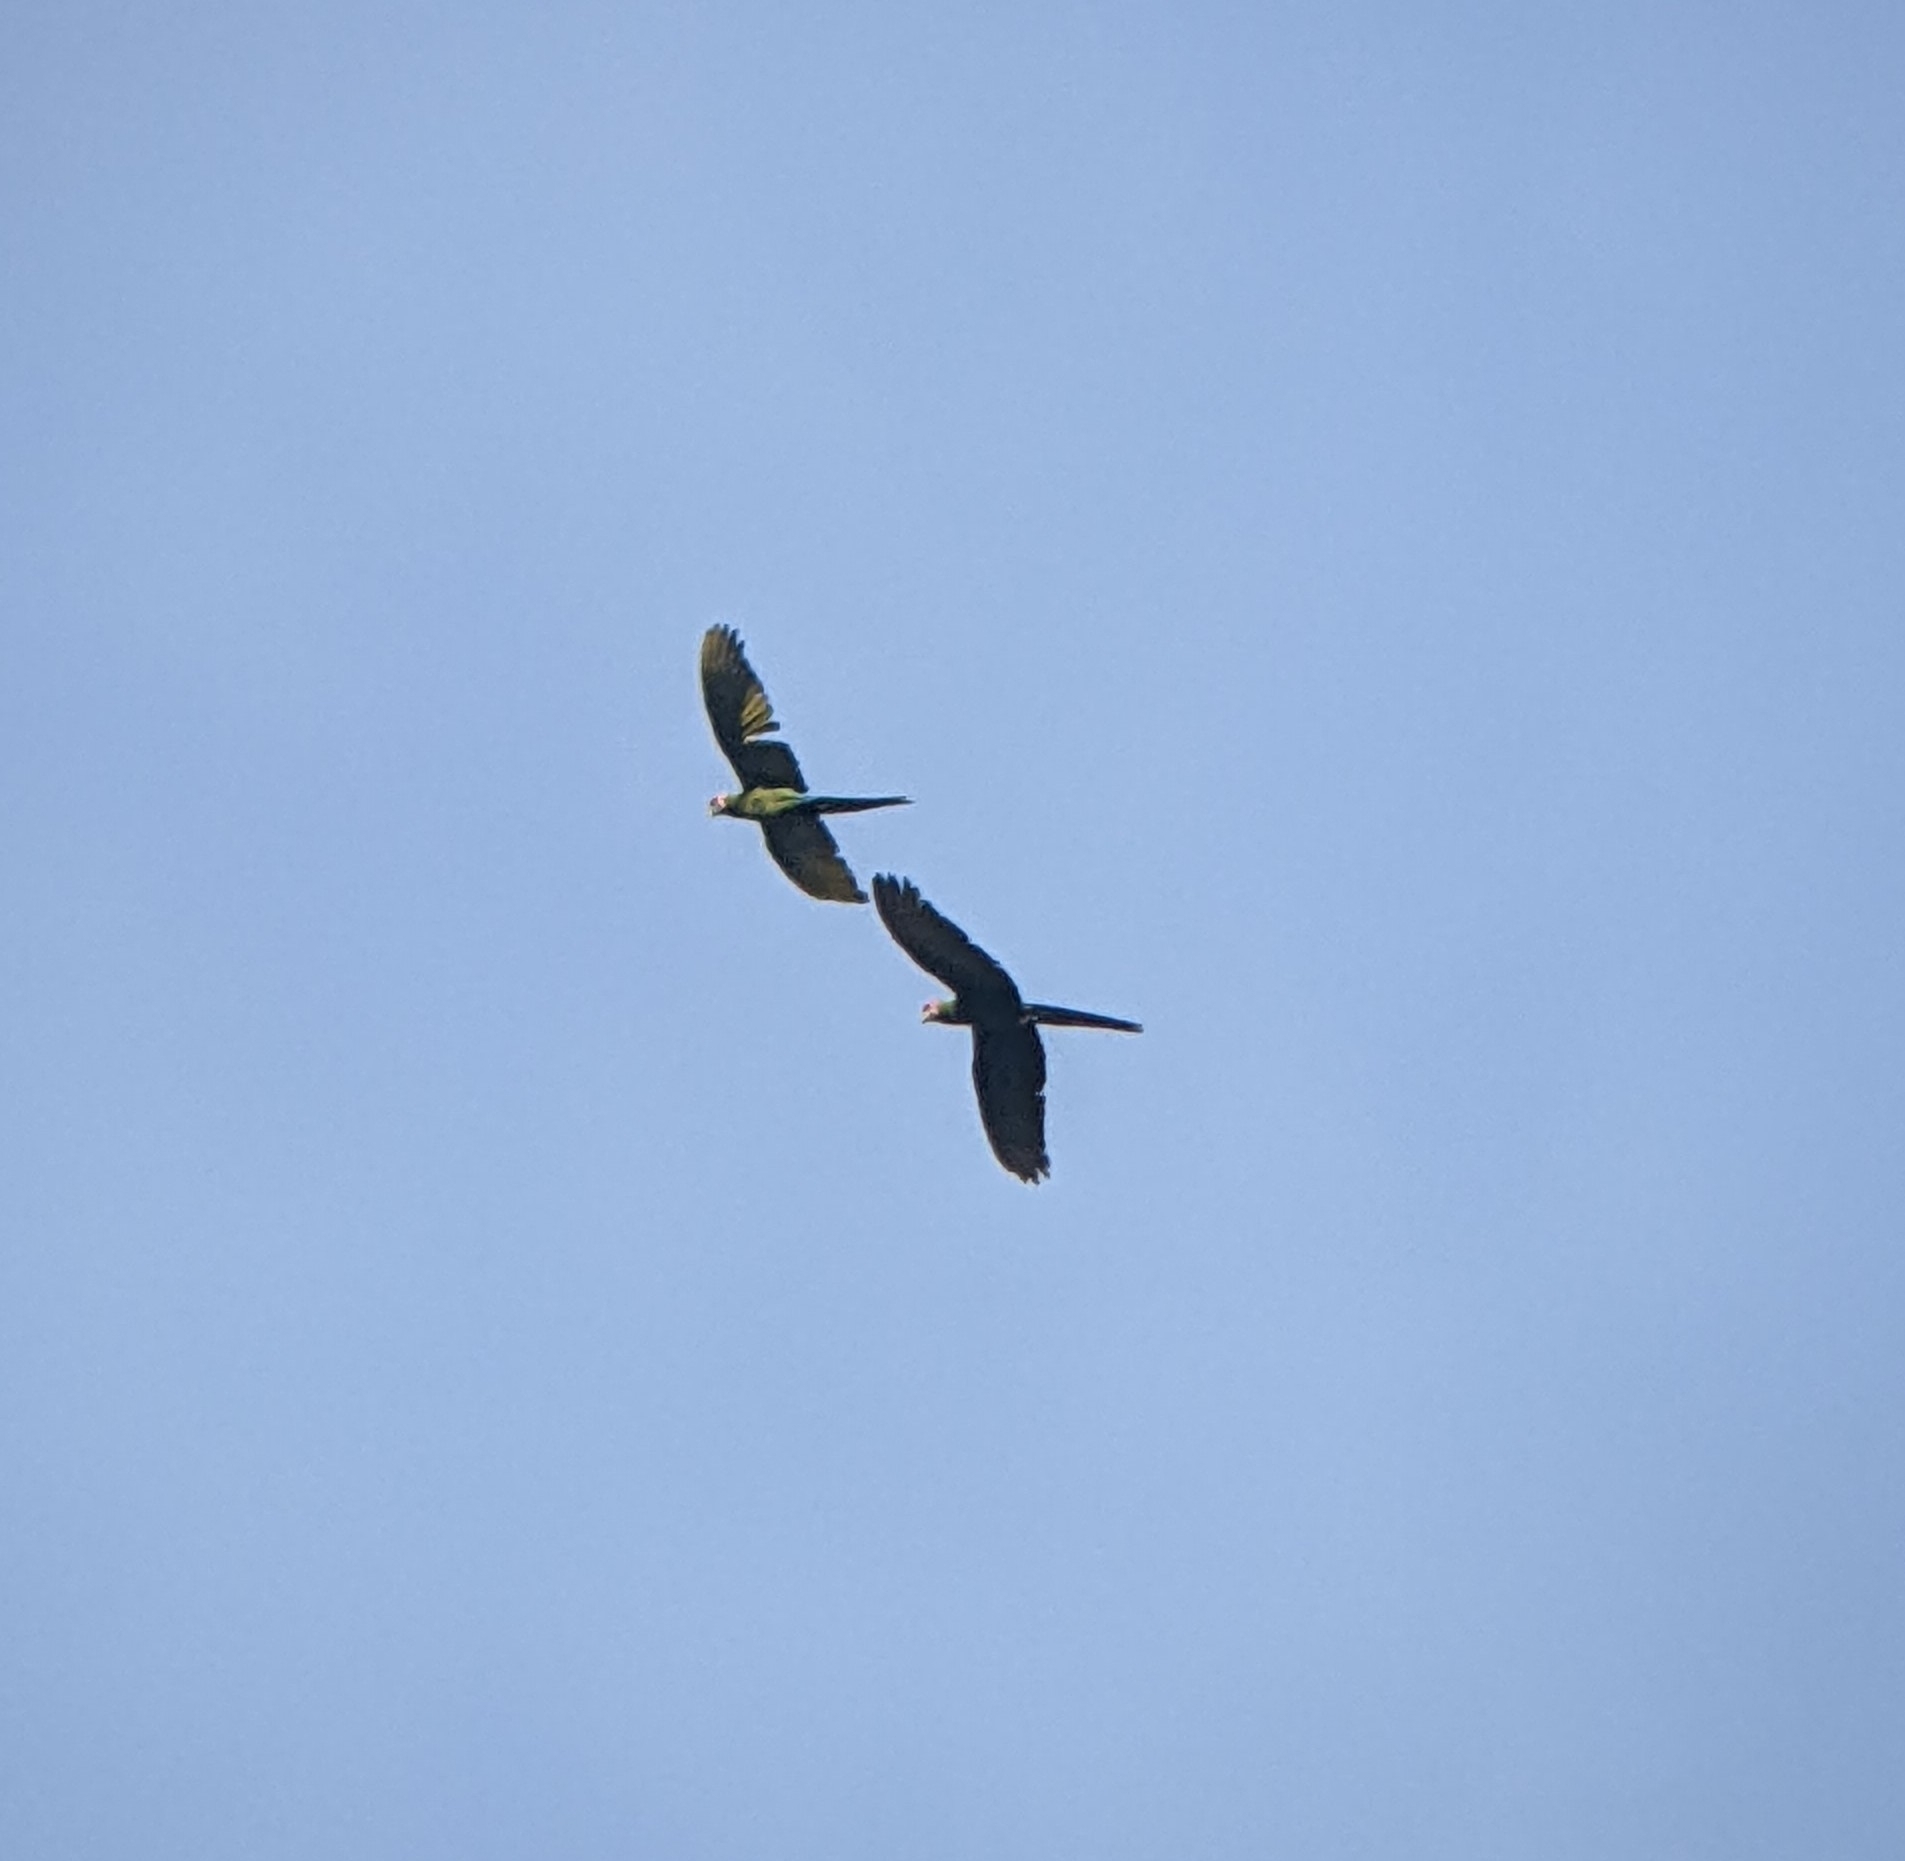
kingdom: Animalia
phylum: Chordata
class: Aves
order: Psittaciformes
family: Psittacidae
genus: Ara
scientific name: Ara militaris
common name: Military macaw
